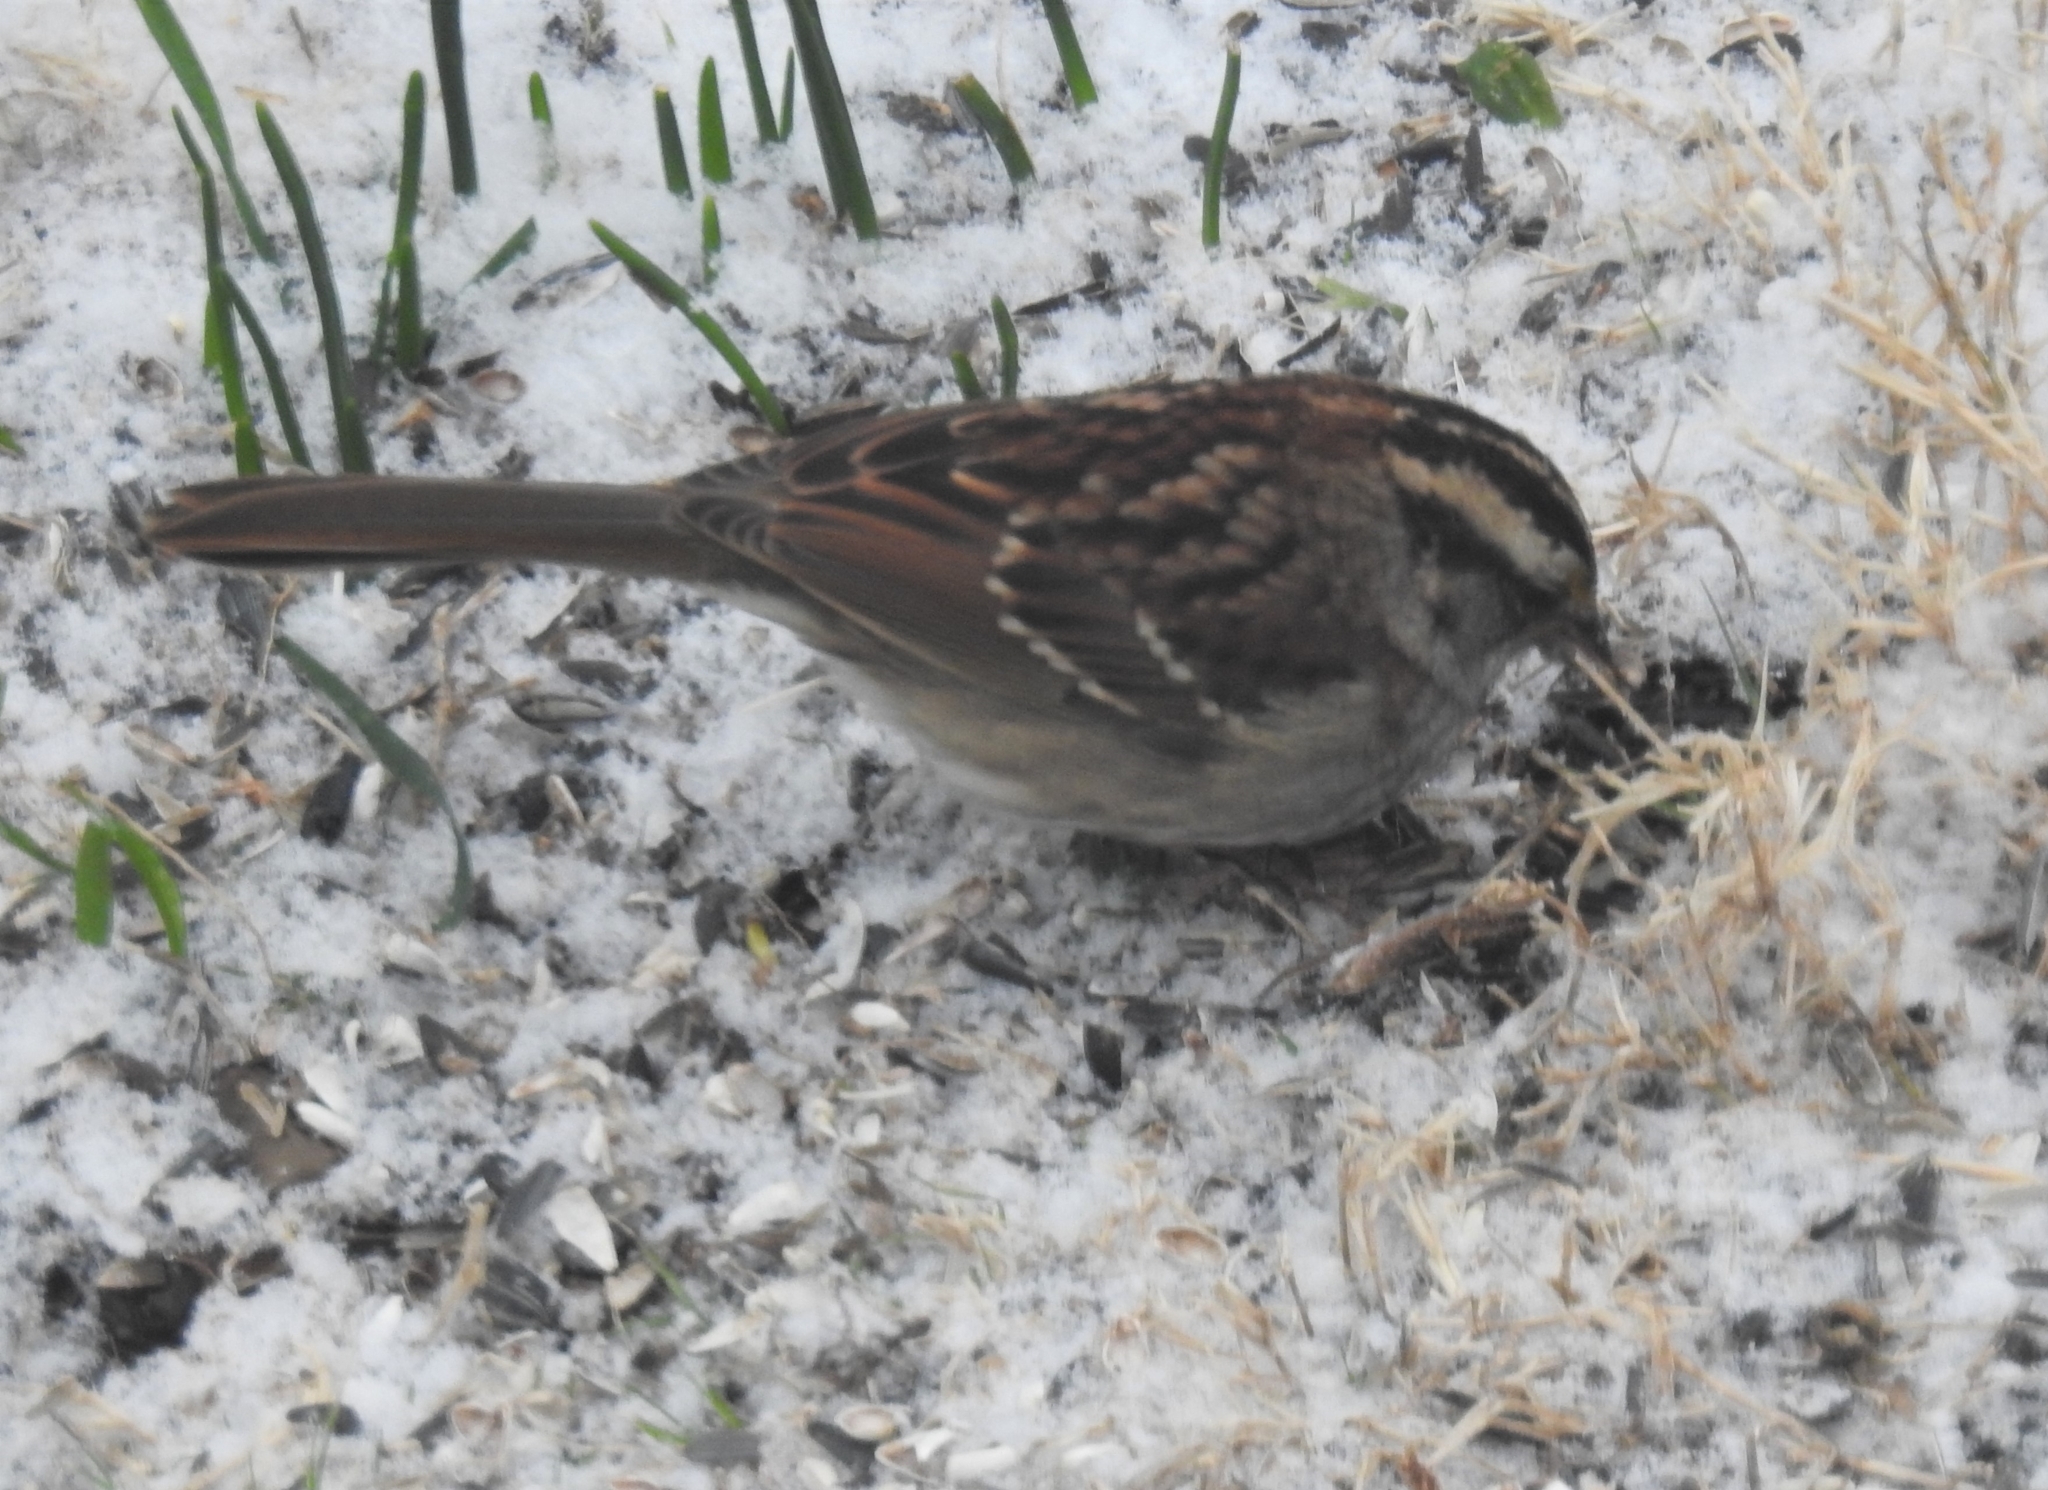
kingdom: Animalia
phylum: Chordata
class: Aves
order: Passeriformes
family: Passerellidae
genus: Zonotrichia
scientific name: Zonotrichia albicollis
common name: White-throated sparrow
